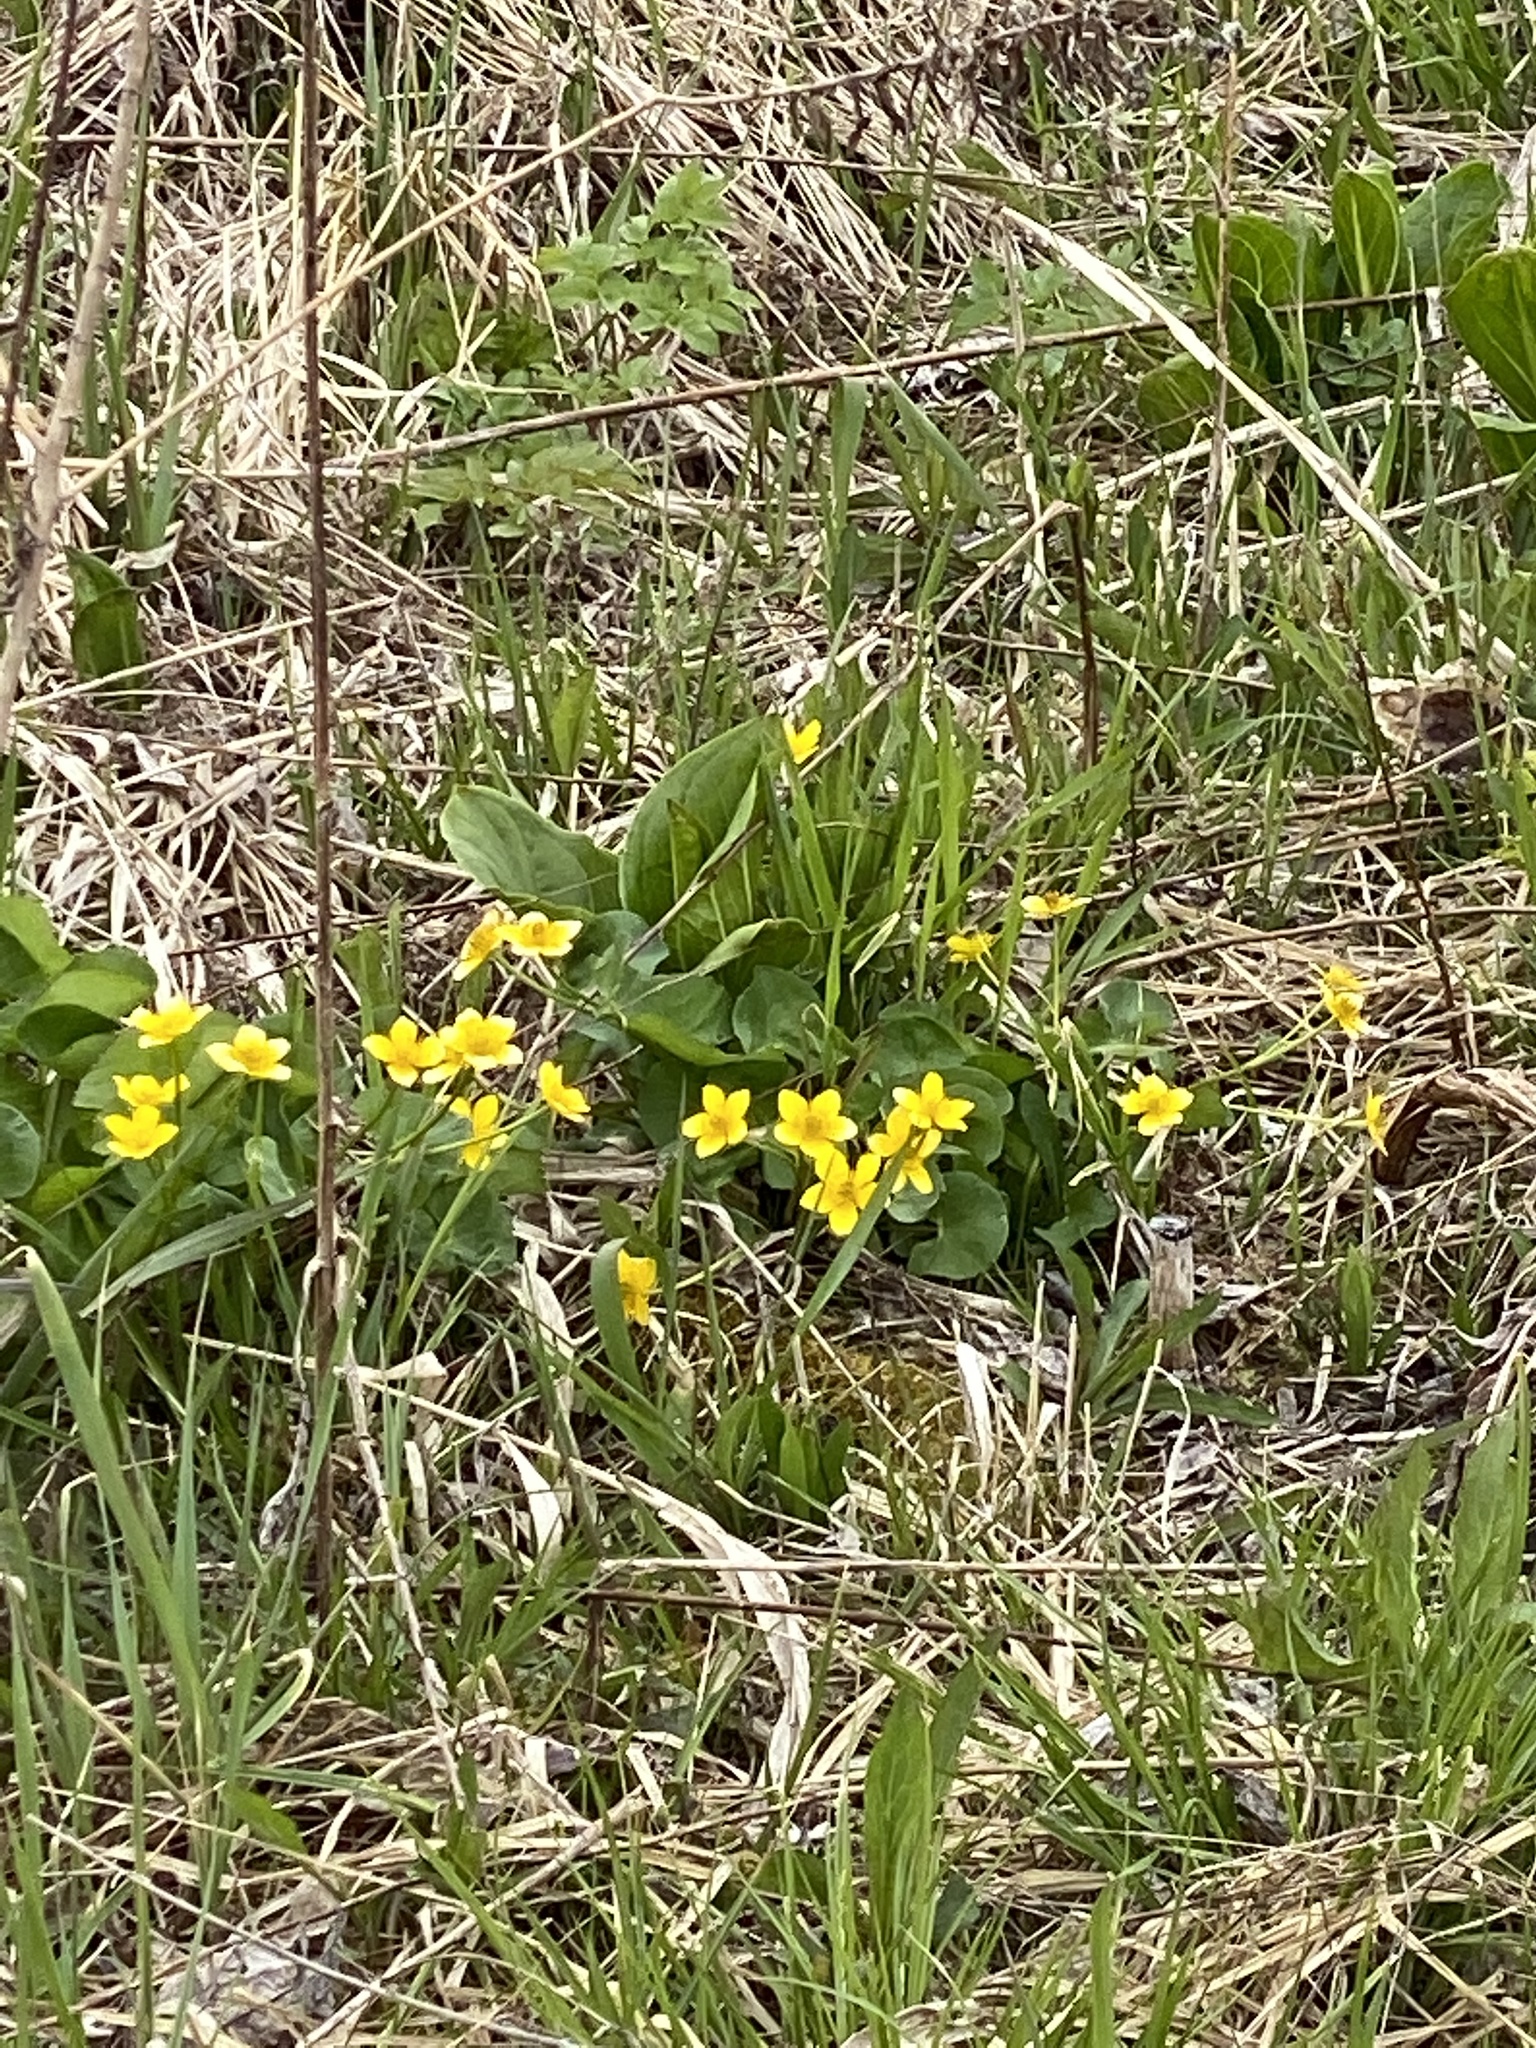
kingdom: Plantae
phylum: Tracheophyta
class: Magnoliopsida
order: Ranunculales
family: Ranunculaceae
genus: Caltha
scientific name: Caltha palustris
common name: Marsh marigold
